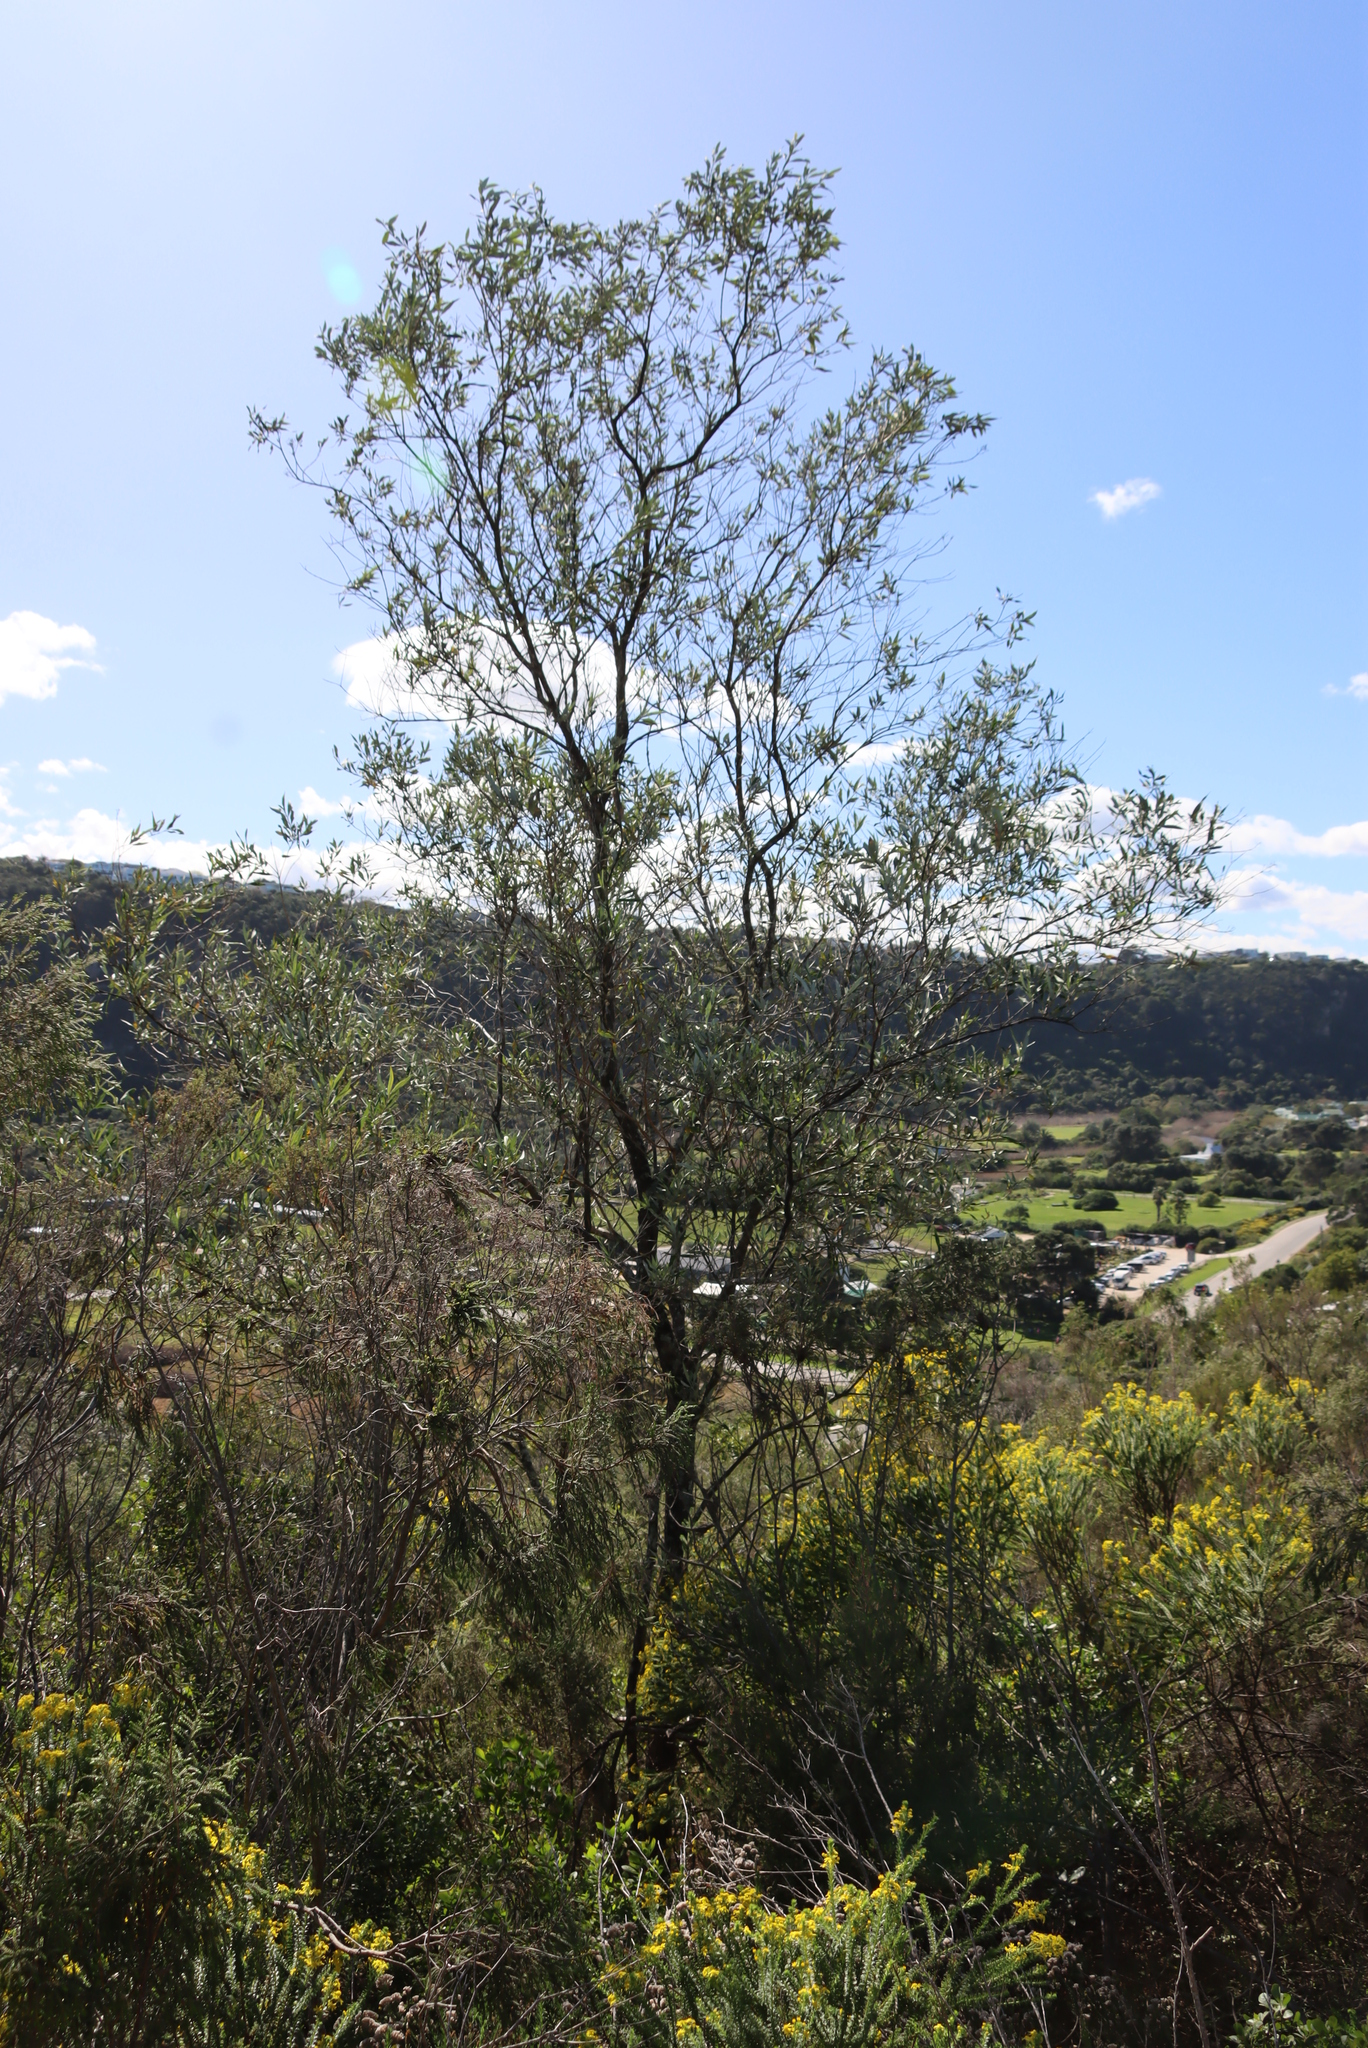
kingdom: Plantae
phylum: Tracheophyta
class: Magnoliopsida
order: Lamiales
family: Scrophulariaceae
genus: Buddleja
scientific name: Buddleja saligna
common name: False olive
